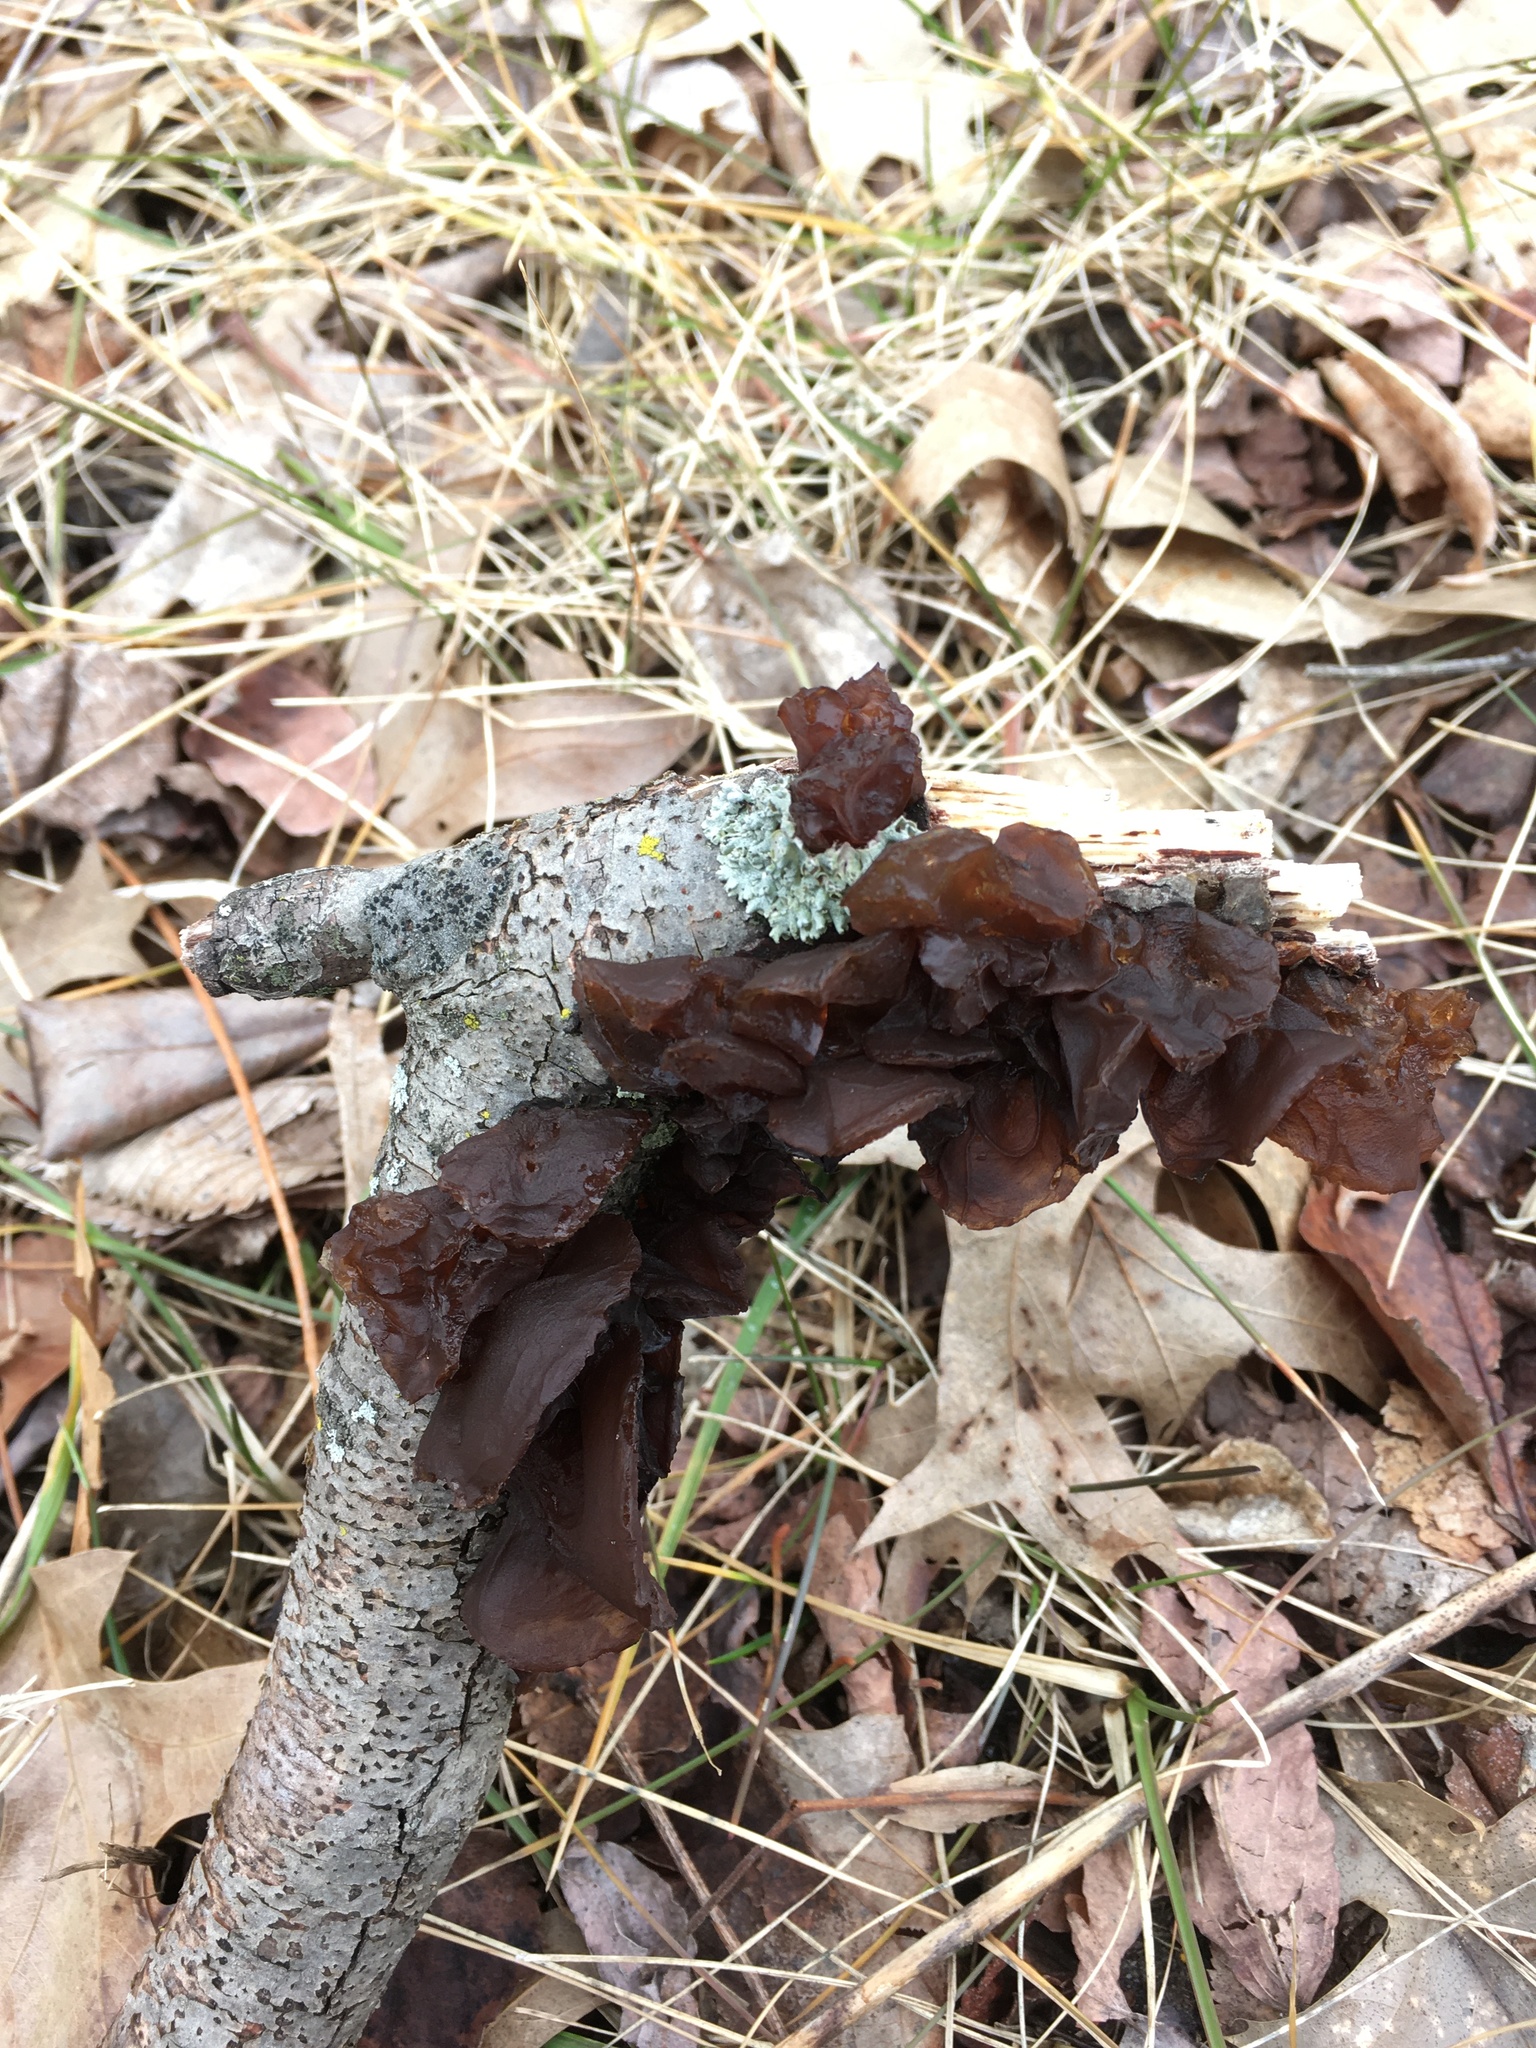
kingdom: Fungi
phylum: Basidiomycota
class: Agaricomycetes
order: Auriculariales
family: Auriculariaceae
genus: Exidia
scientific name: Exidia
